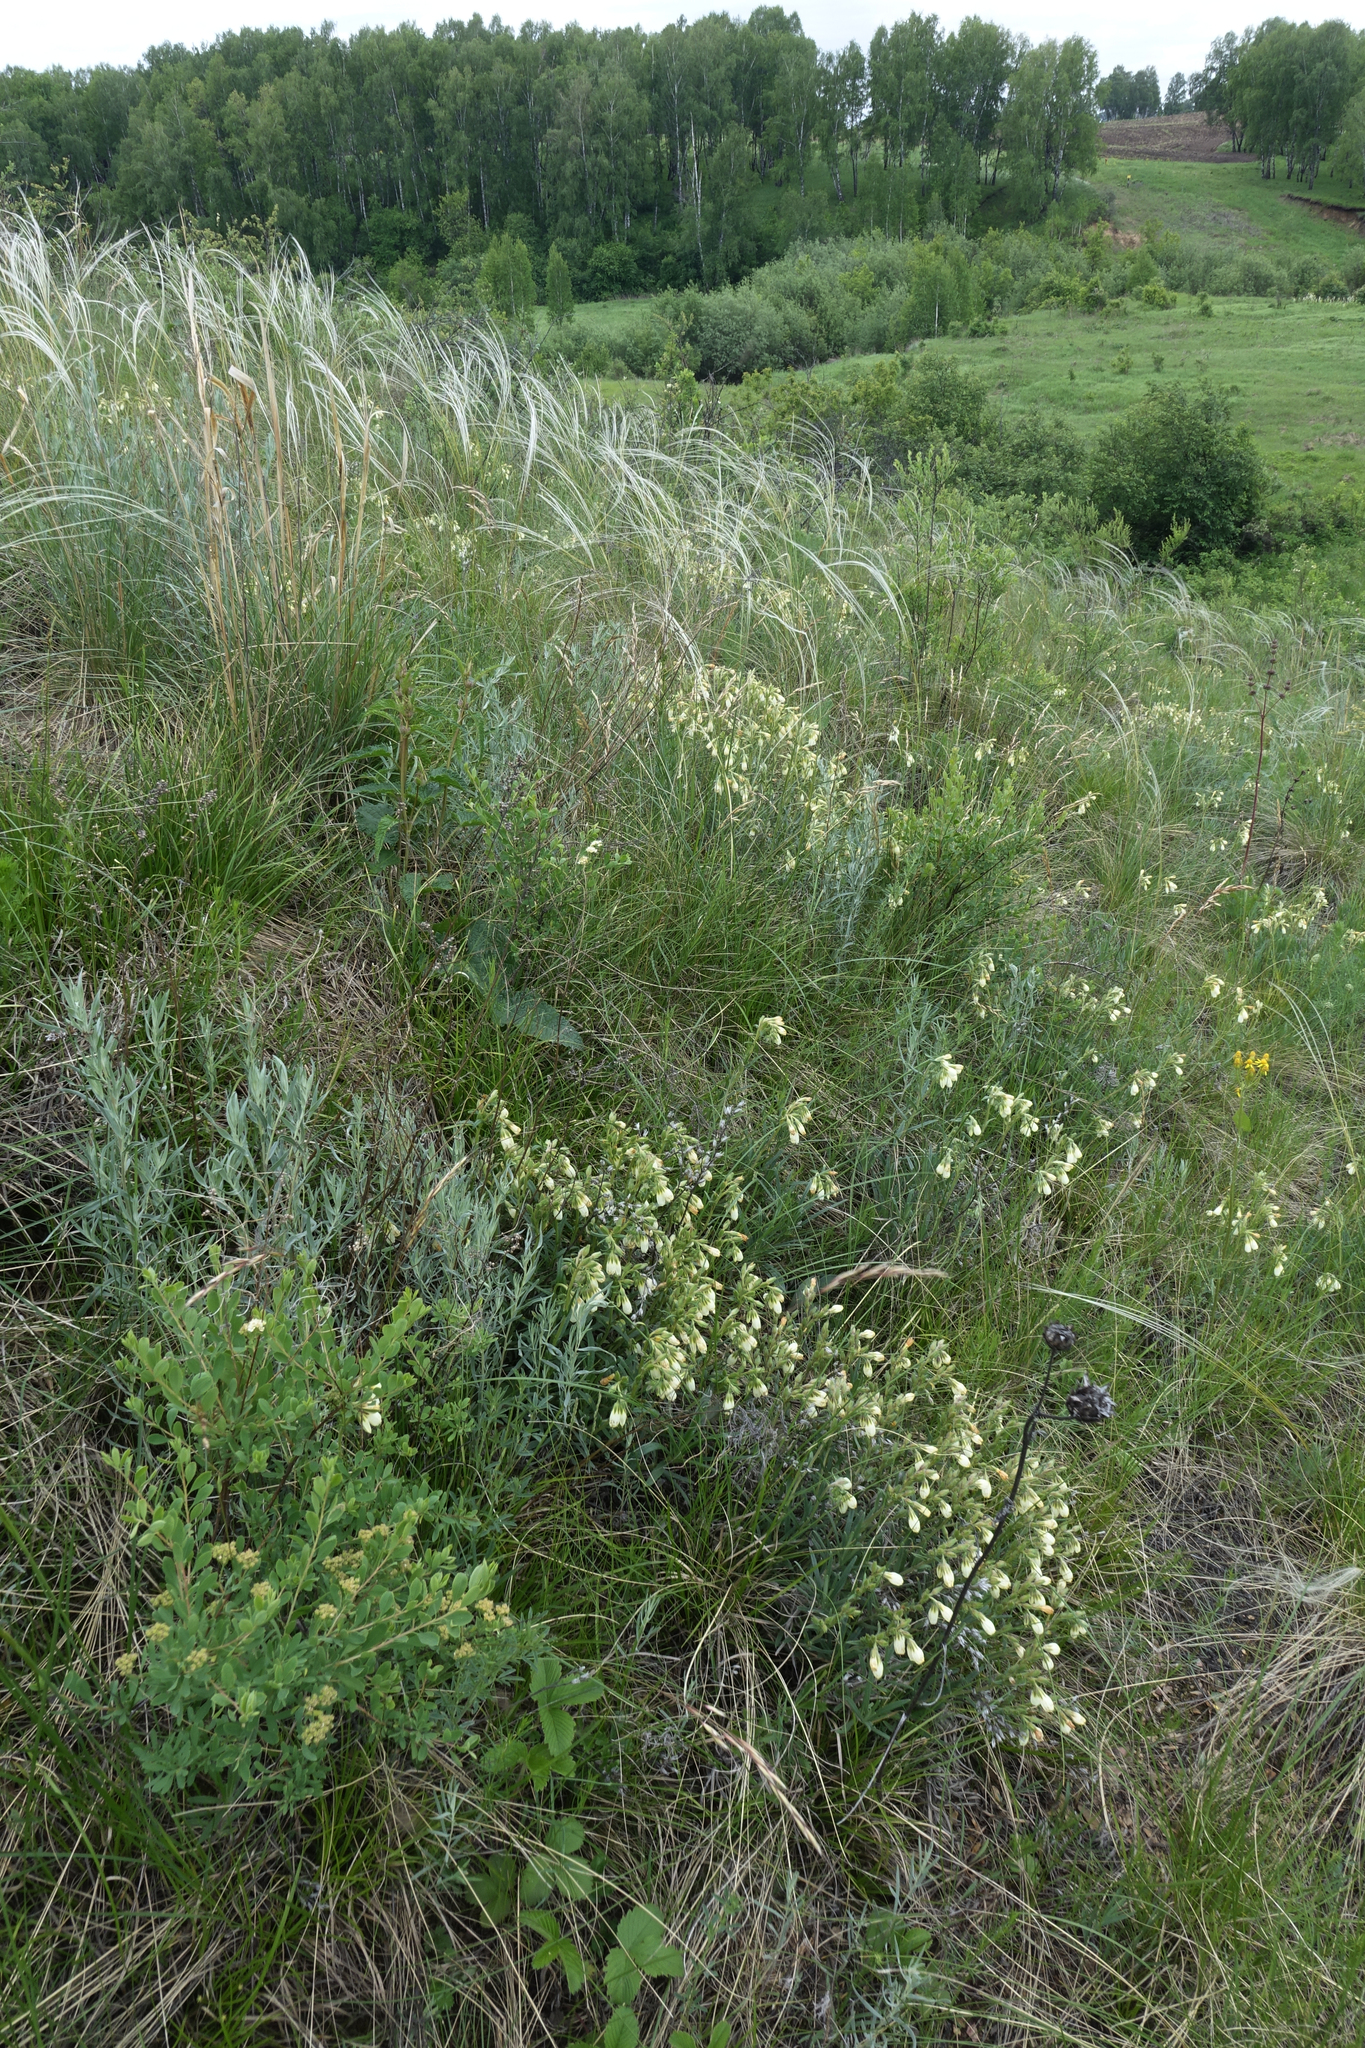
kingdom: Plantae
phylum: Tracheophyta
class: Magnoliopsida
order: Boraginales
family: Boraginaceae
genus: Onosma
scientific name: Onosma simplicissima
